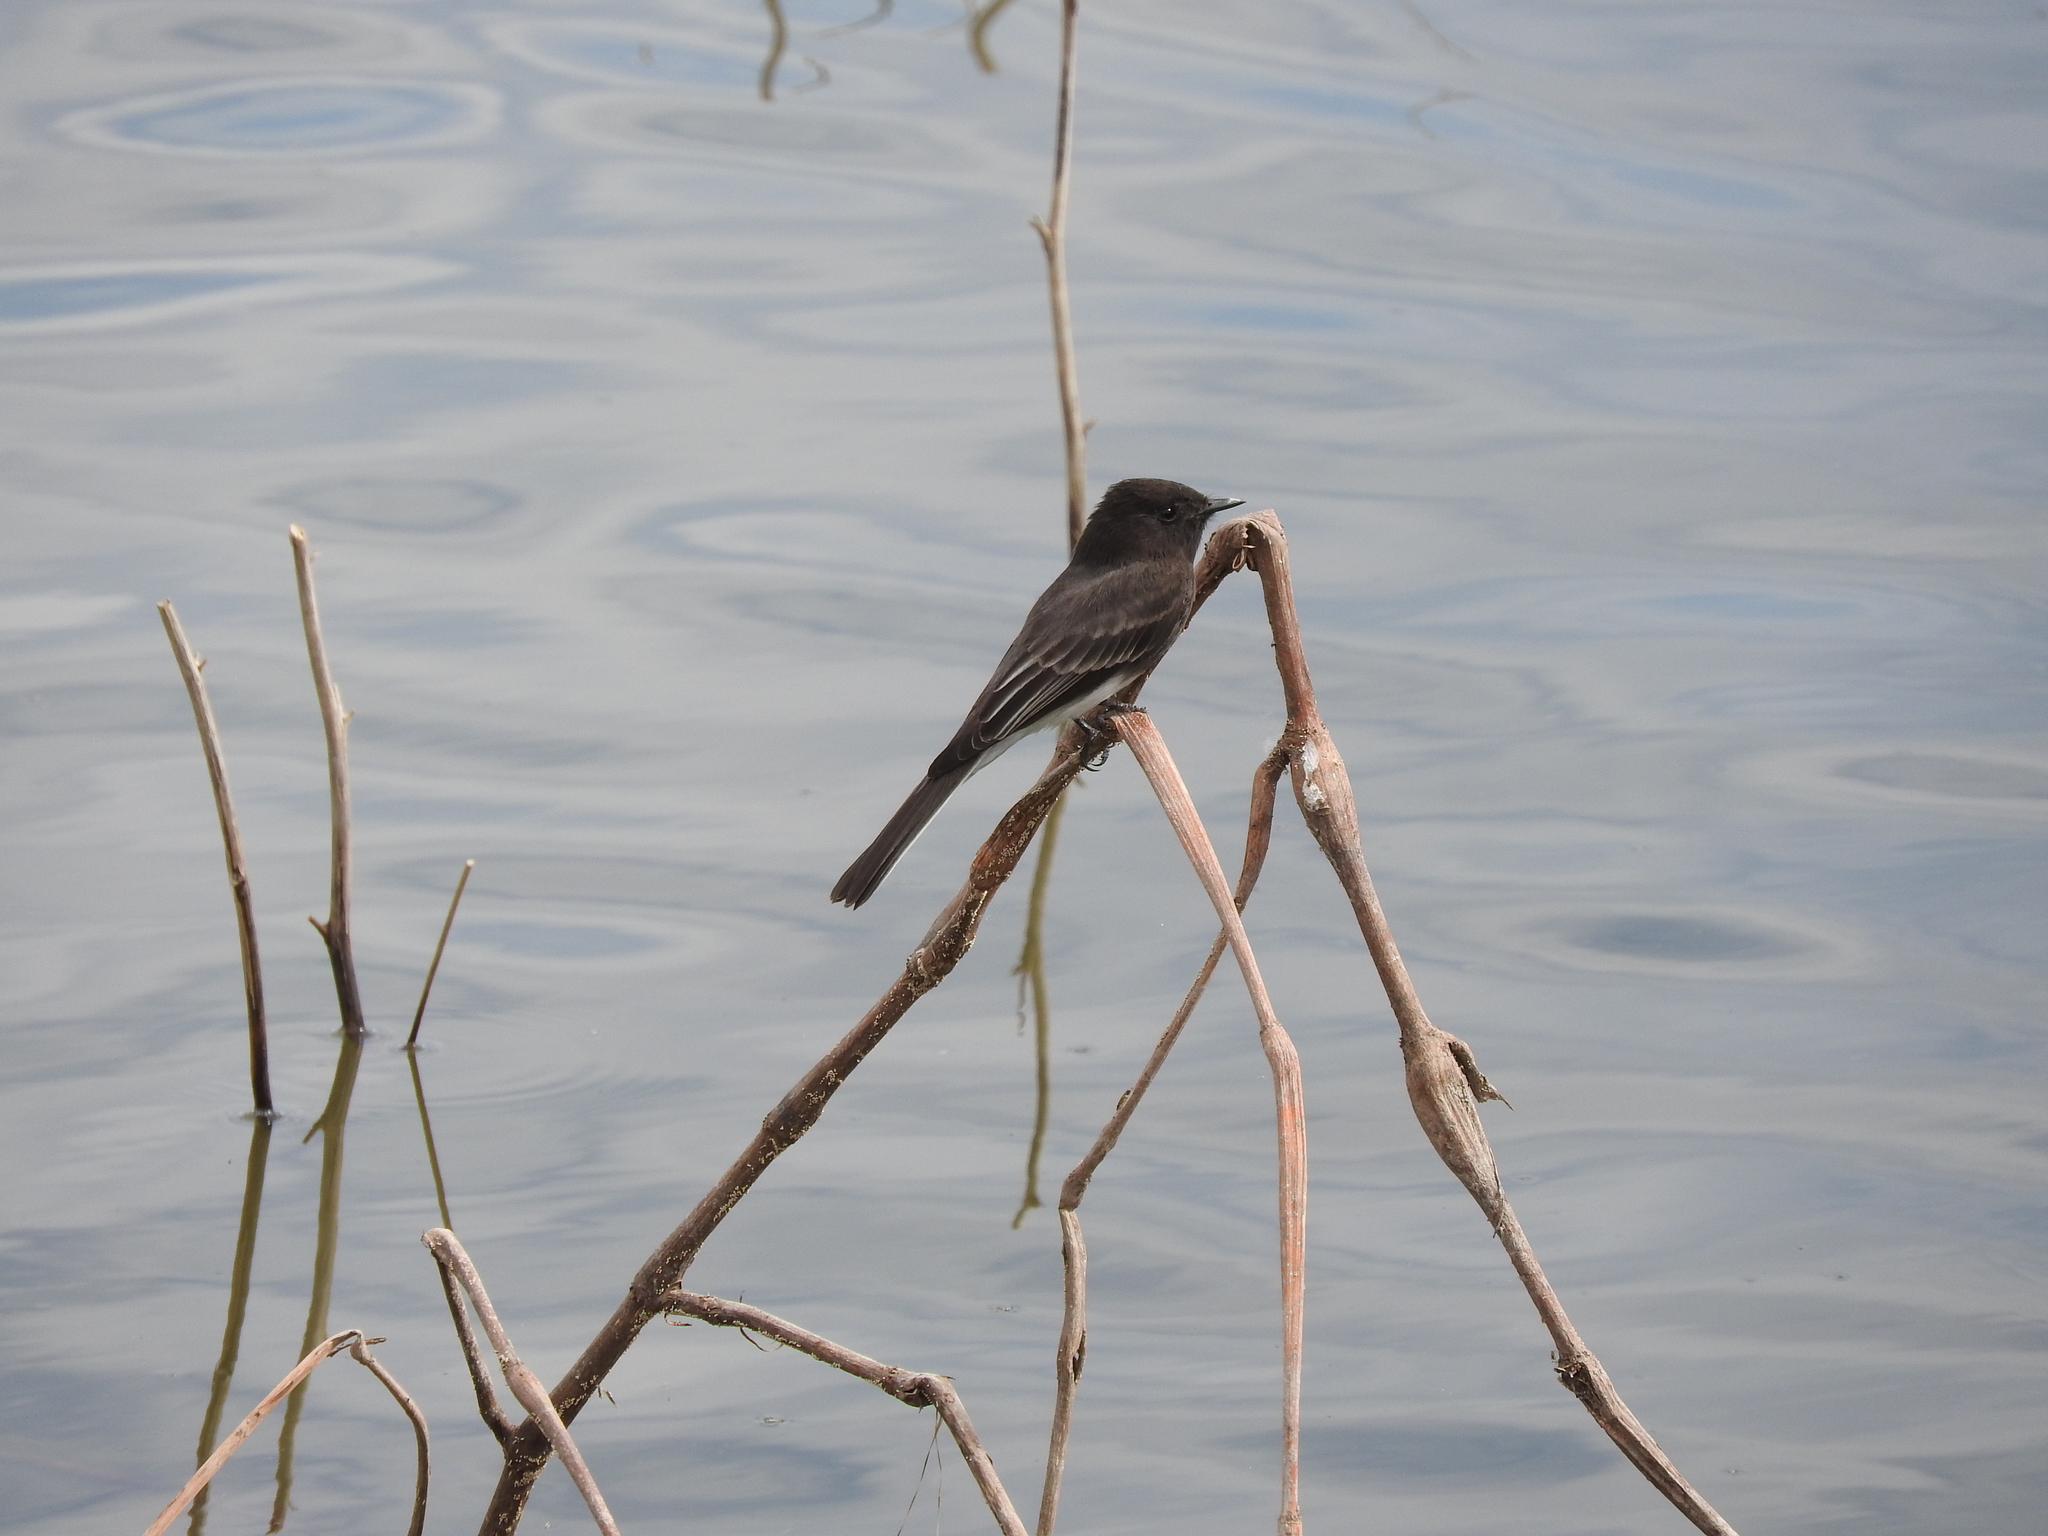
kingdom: Animalia
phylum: Chordata
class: Aves
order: Passeriformes
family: Tyrannidae
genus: Sayornis
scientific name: Sayornis nigricans
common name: Black phoebe
